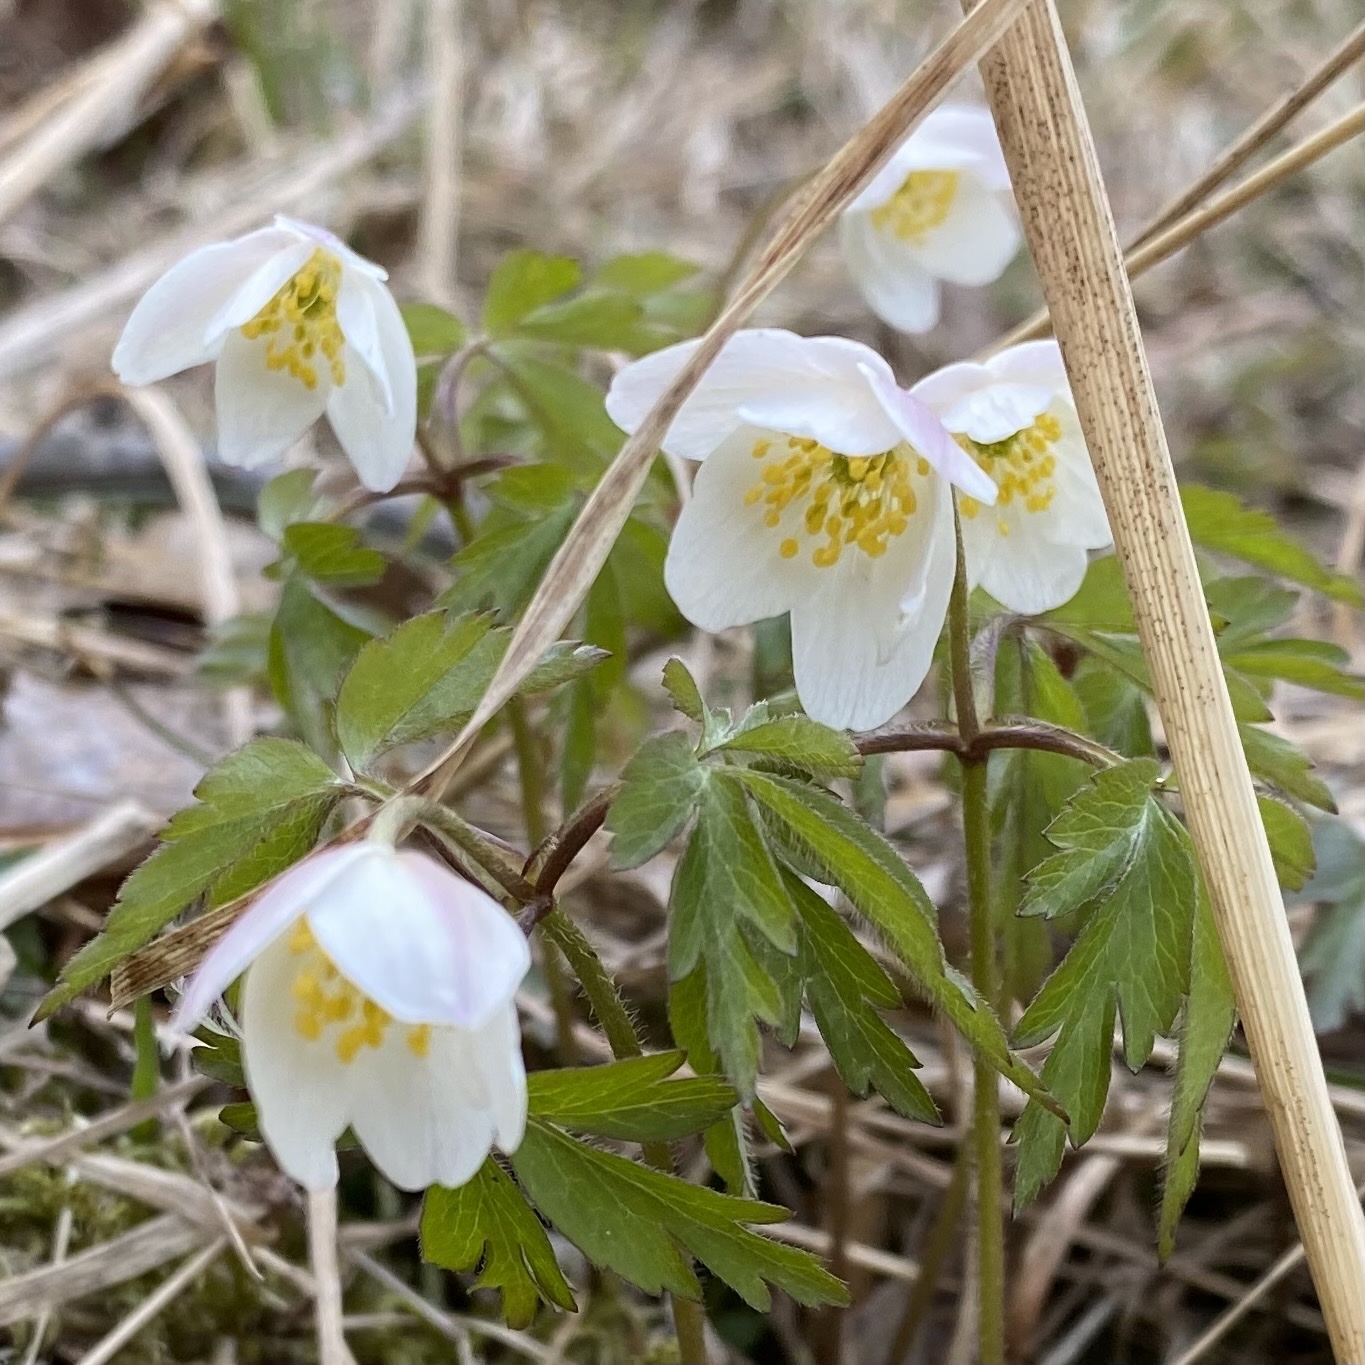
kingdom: Plantae
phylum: Tracheophyta
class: Magnoliopsida
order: Ranunculales
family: Ranunculaceae
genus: Anemone
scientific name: Anemone nemorosa
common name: Wood anemone
